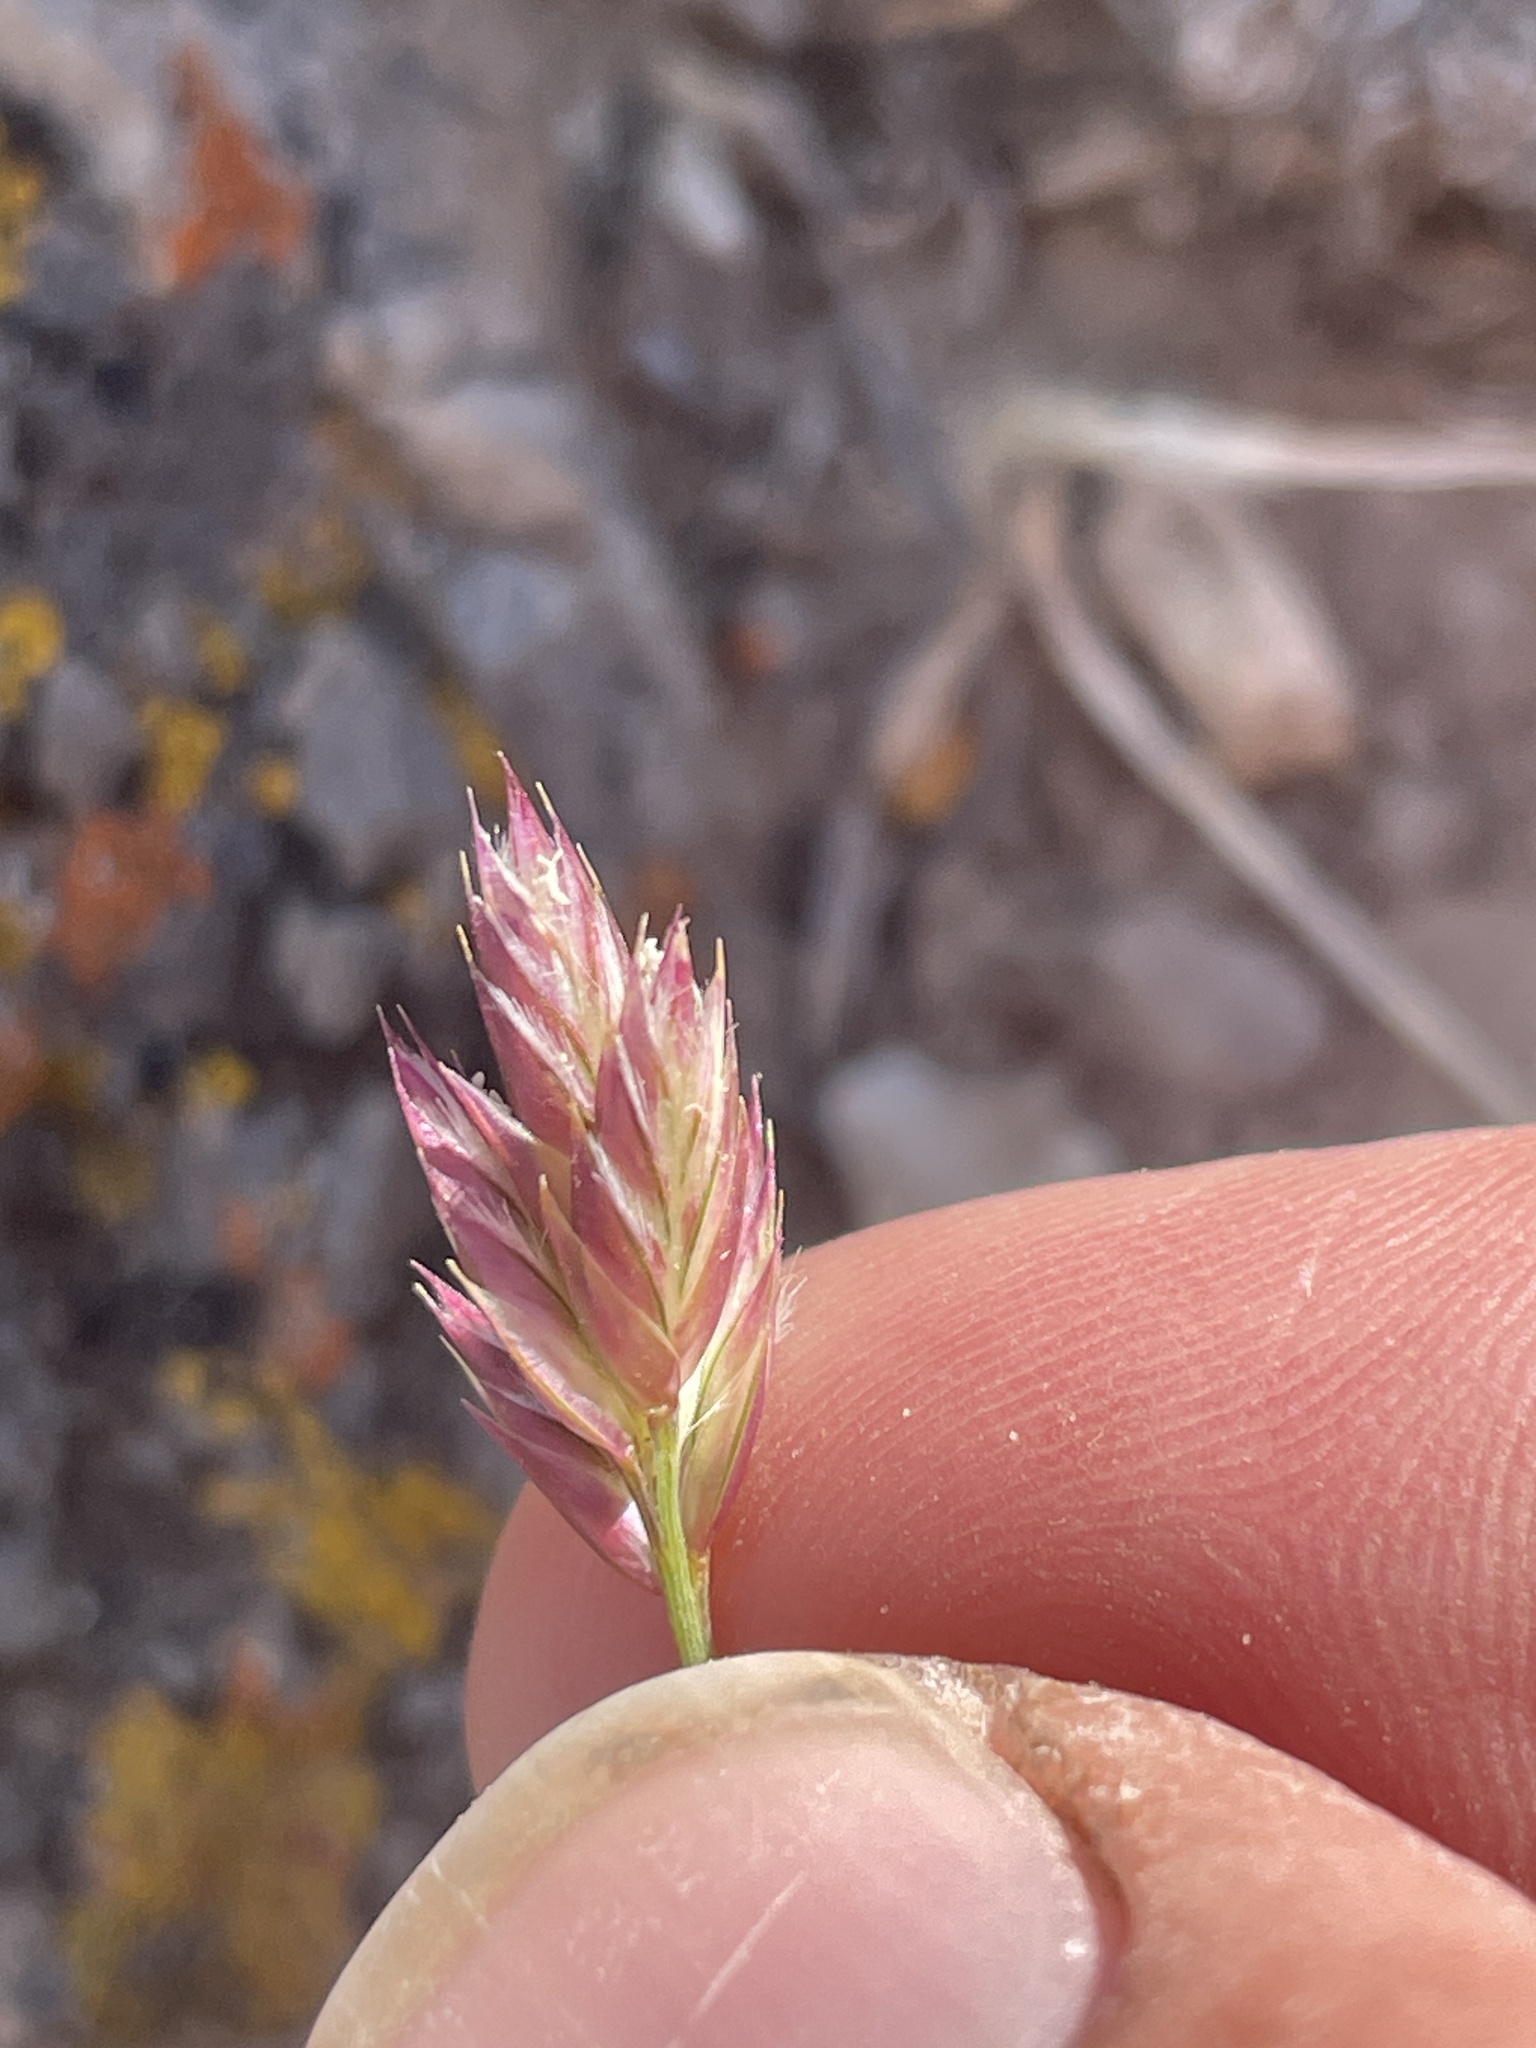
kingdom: Plantae
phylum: Tracheophyta
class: Liliopsida
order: Poales
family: Poaceae
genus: Erioneuron
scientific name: Erioneuron pilosum
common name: Hairy woolly grass
